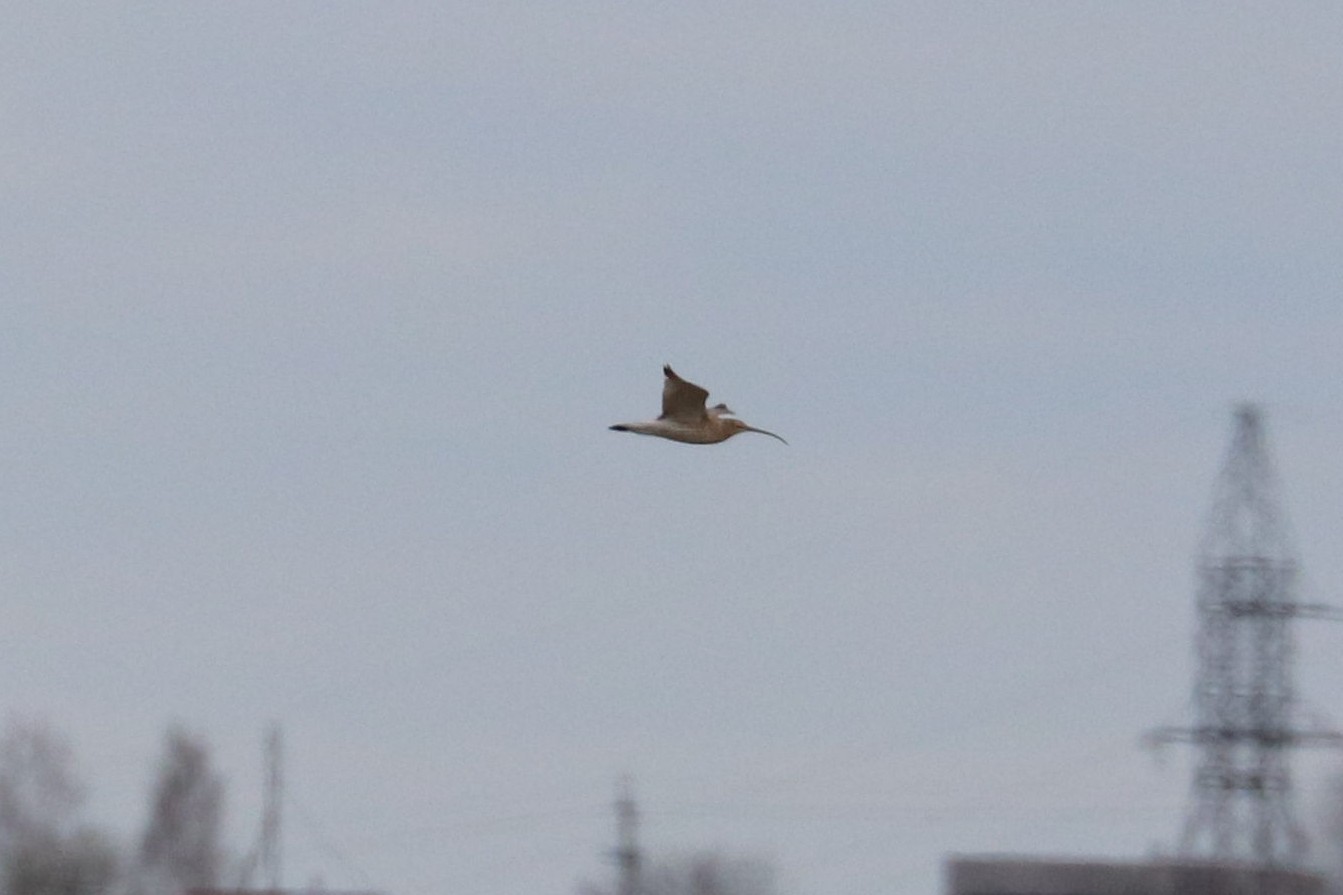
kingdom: Animalia
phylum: Chordata
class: Aves
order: Charadriiformes
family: Scolopacidae
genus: Numenius
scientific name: Numenius arquata
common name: Eurasian curlew
